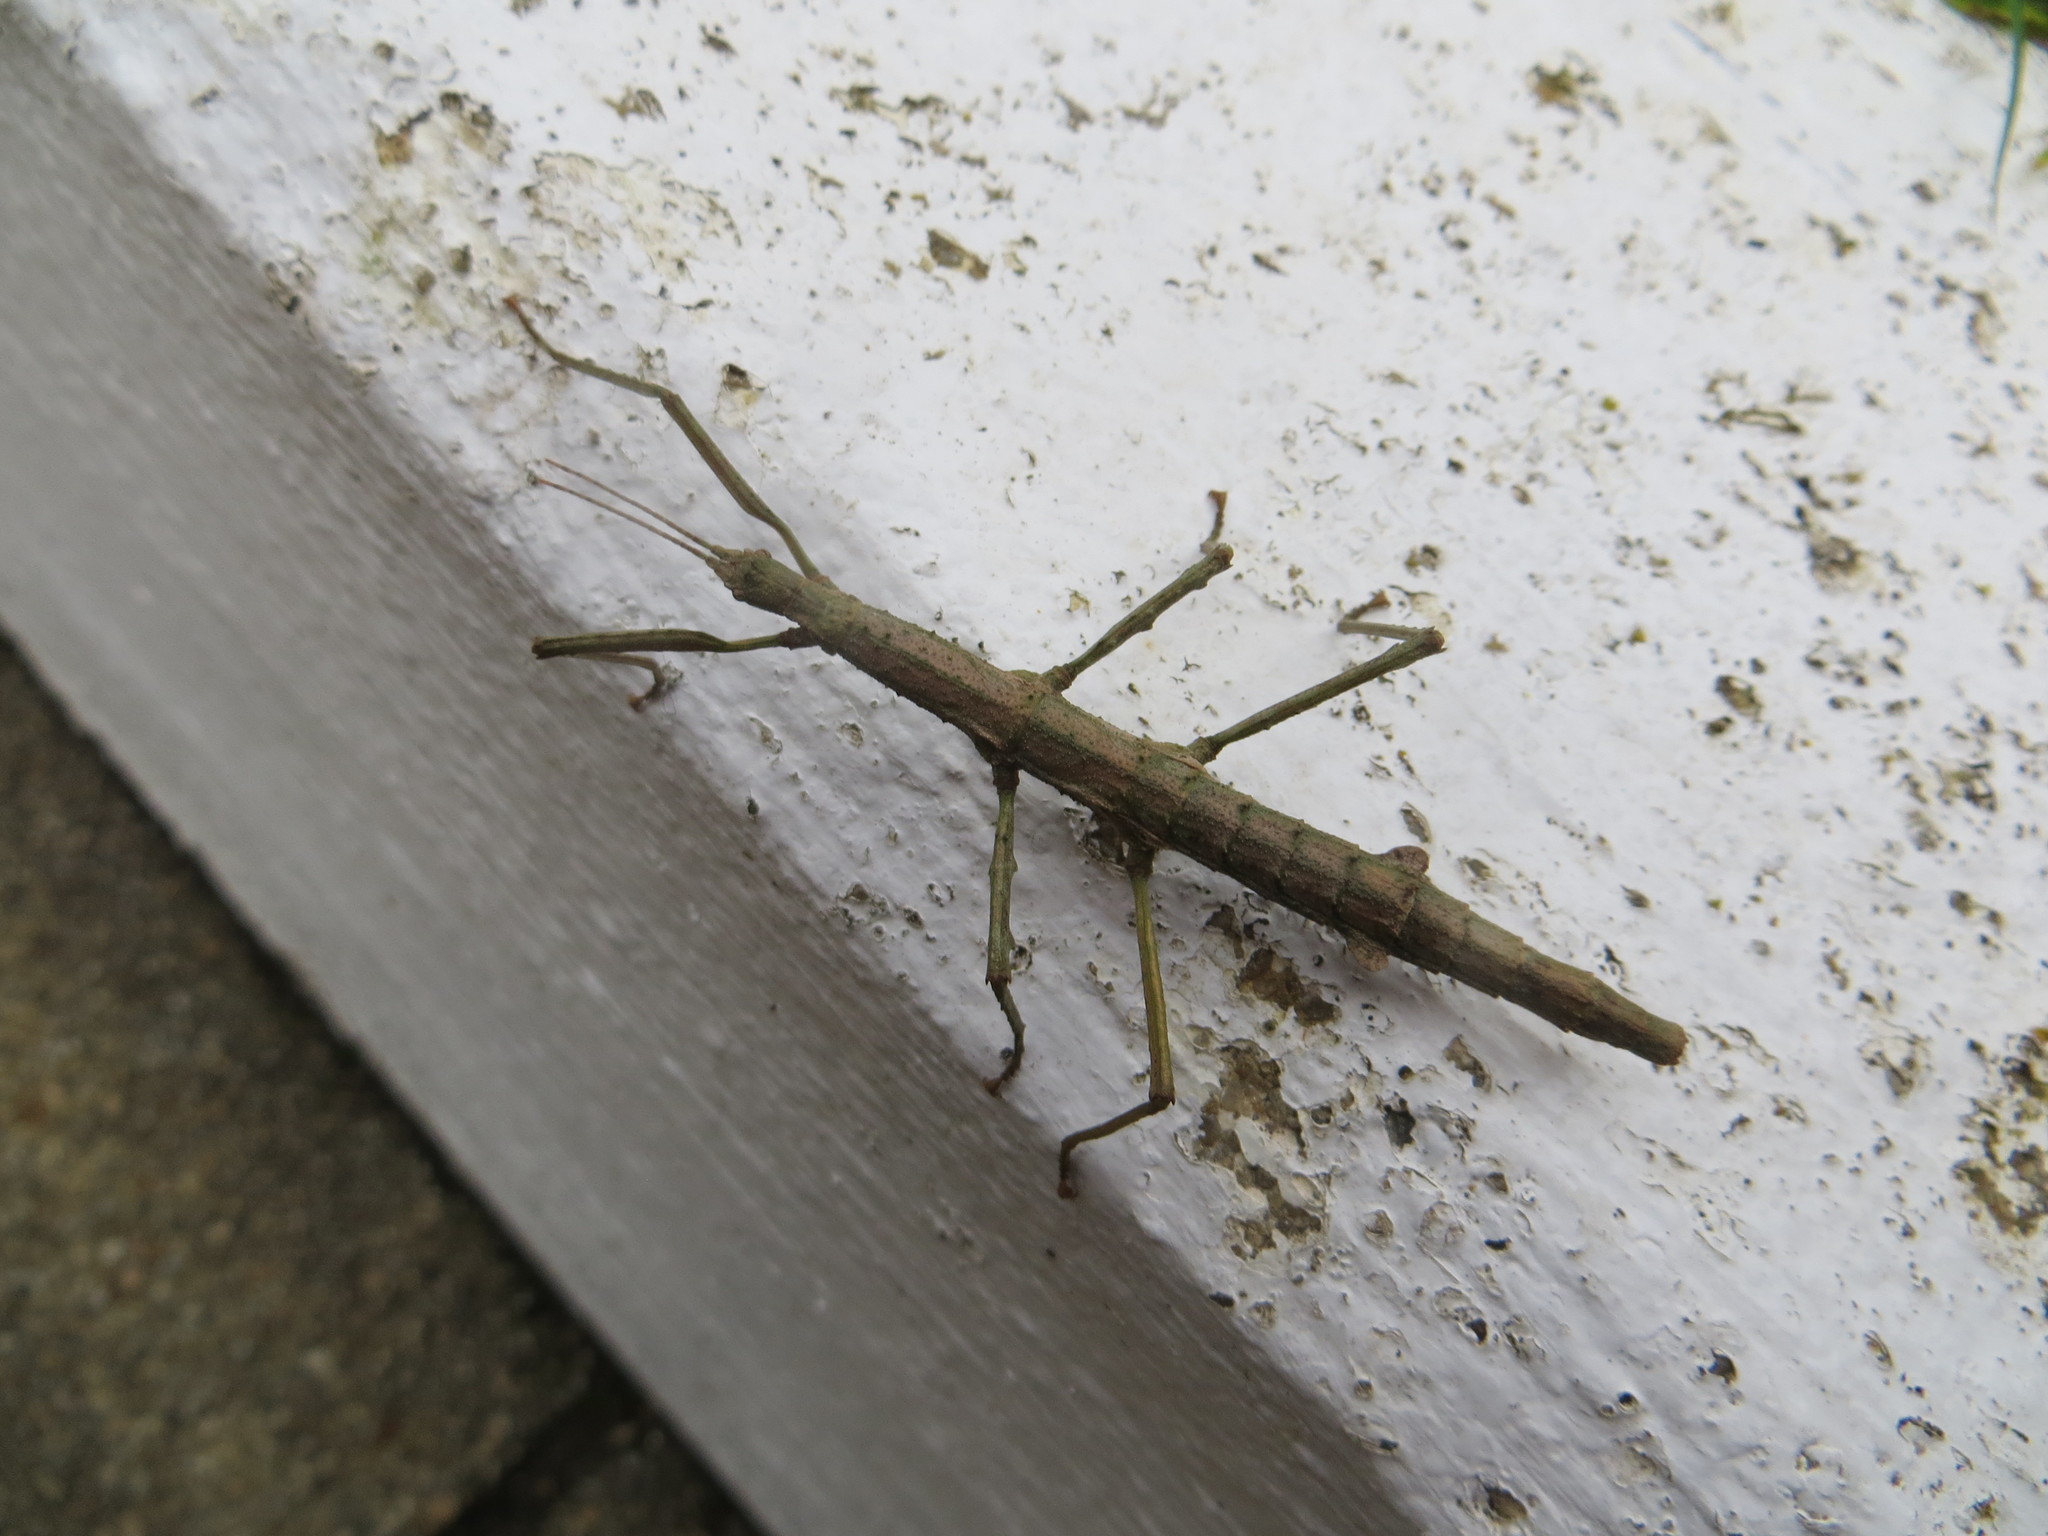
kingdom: Animalia
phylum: Arthropoda
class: Insecta
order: Phasmida
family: Phasmatidae
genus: Niveaphasma
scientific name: Niveaphasma annulatum
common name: Hutton's stick insect
